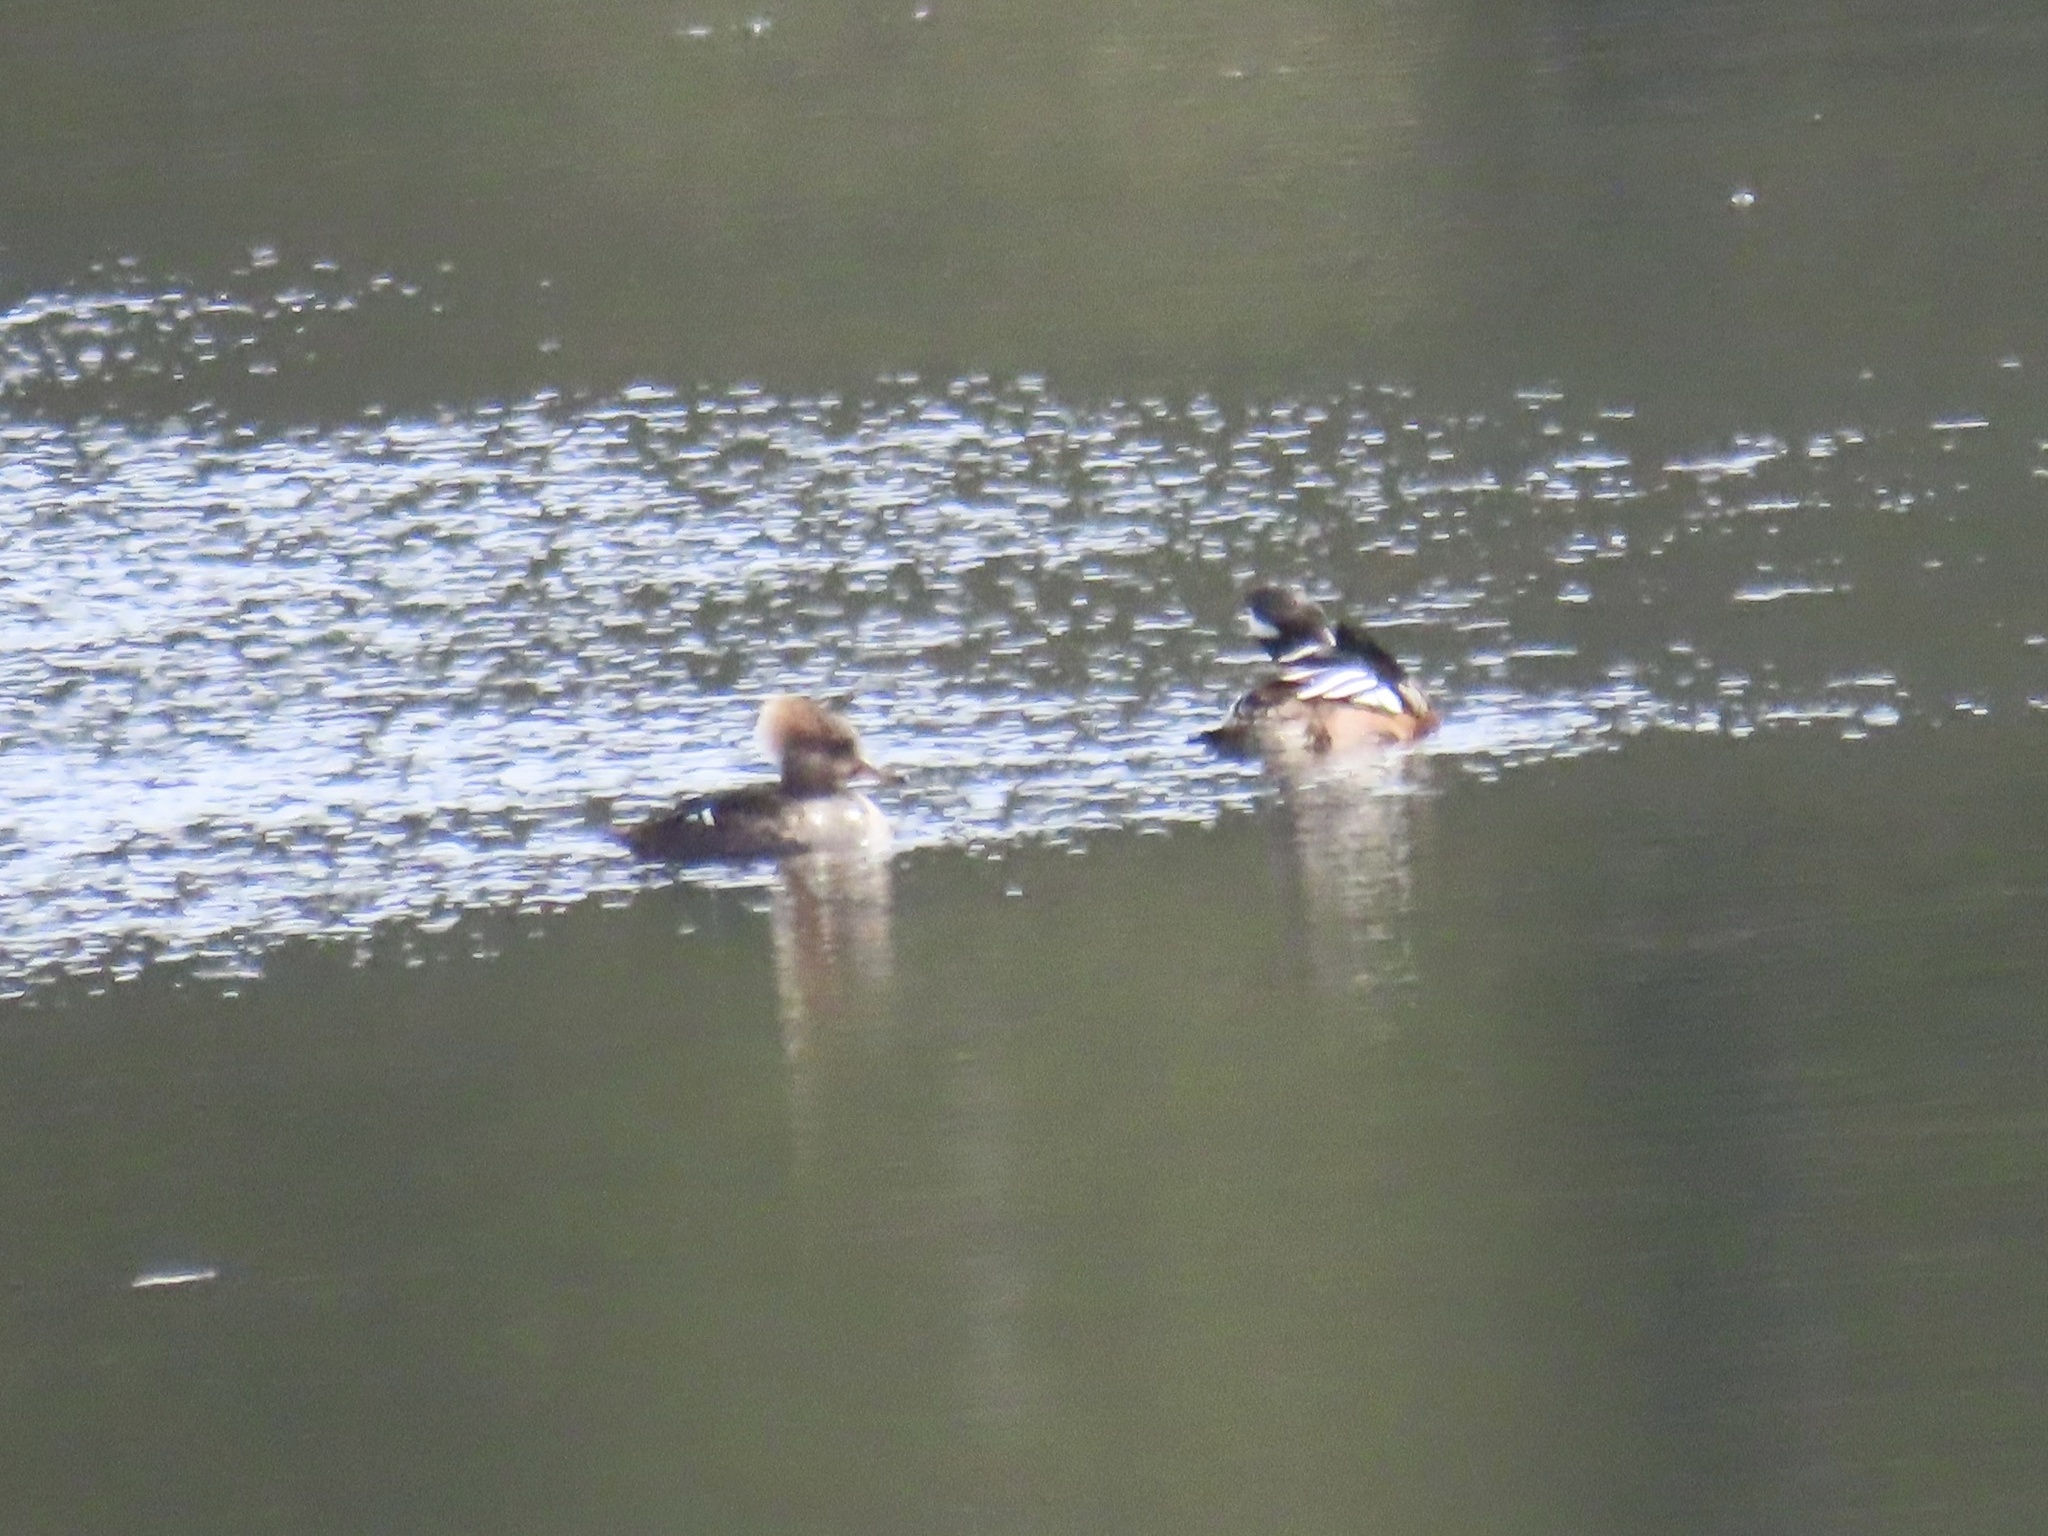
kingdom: Animalia
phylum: Chordata
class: Aves
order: Anseriformes
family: Anatidae
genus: Lophodytes
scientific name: Lophodytes cucullatus
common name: Hooded merganser
